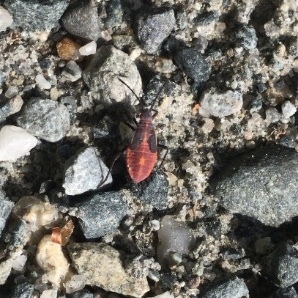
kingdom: Animalia
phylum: Arthropoda
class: Insecta
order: Hemiptera
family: Rhopalidae
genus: Boisea
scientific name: Boisea trivittata
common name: Boxelder bug
